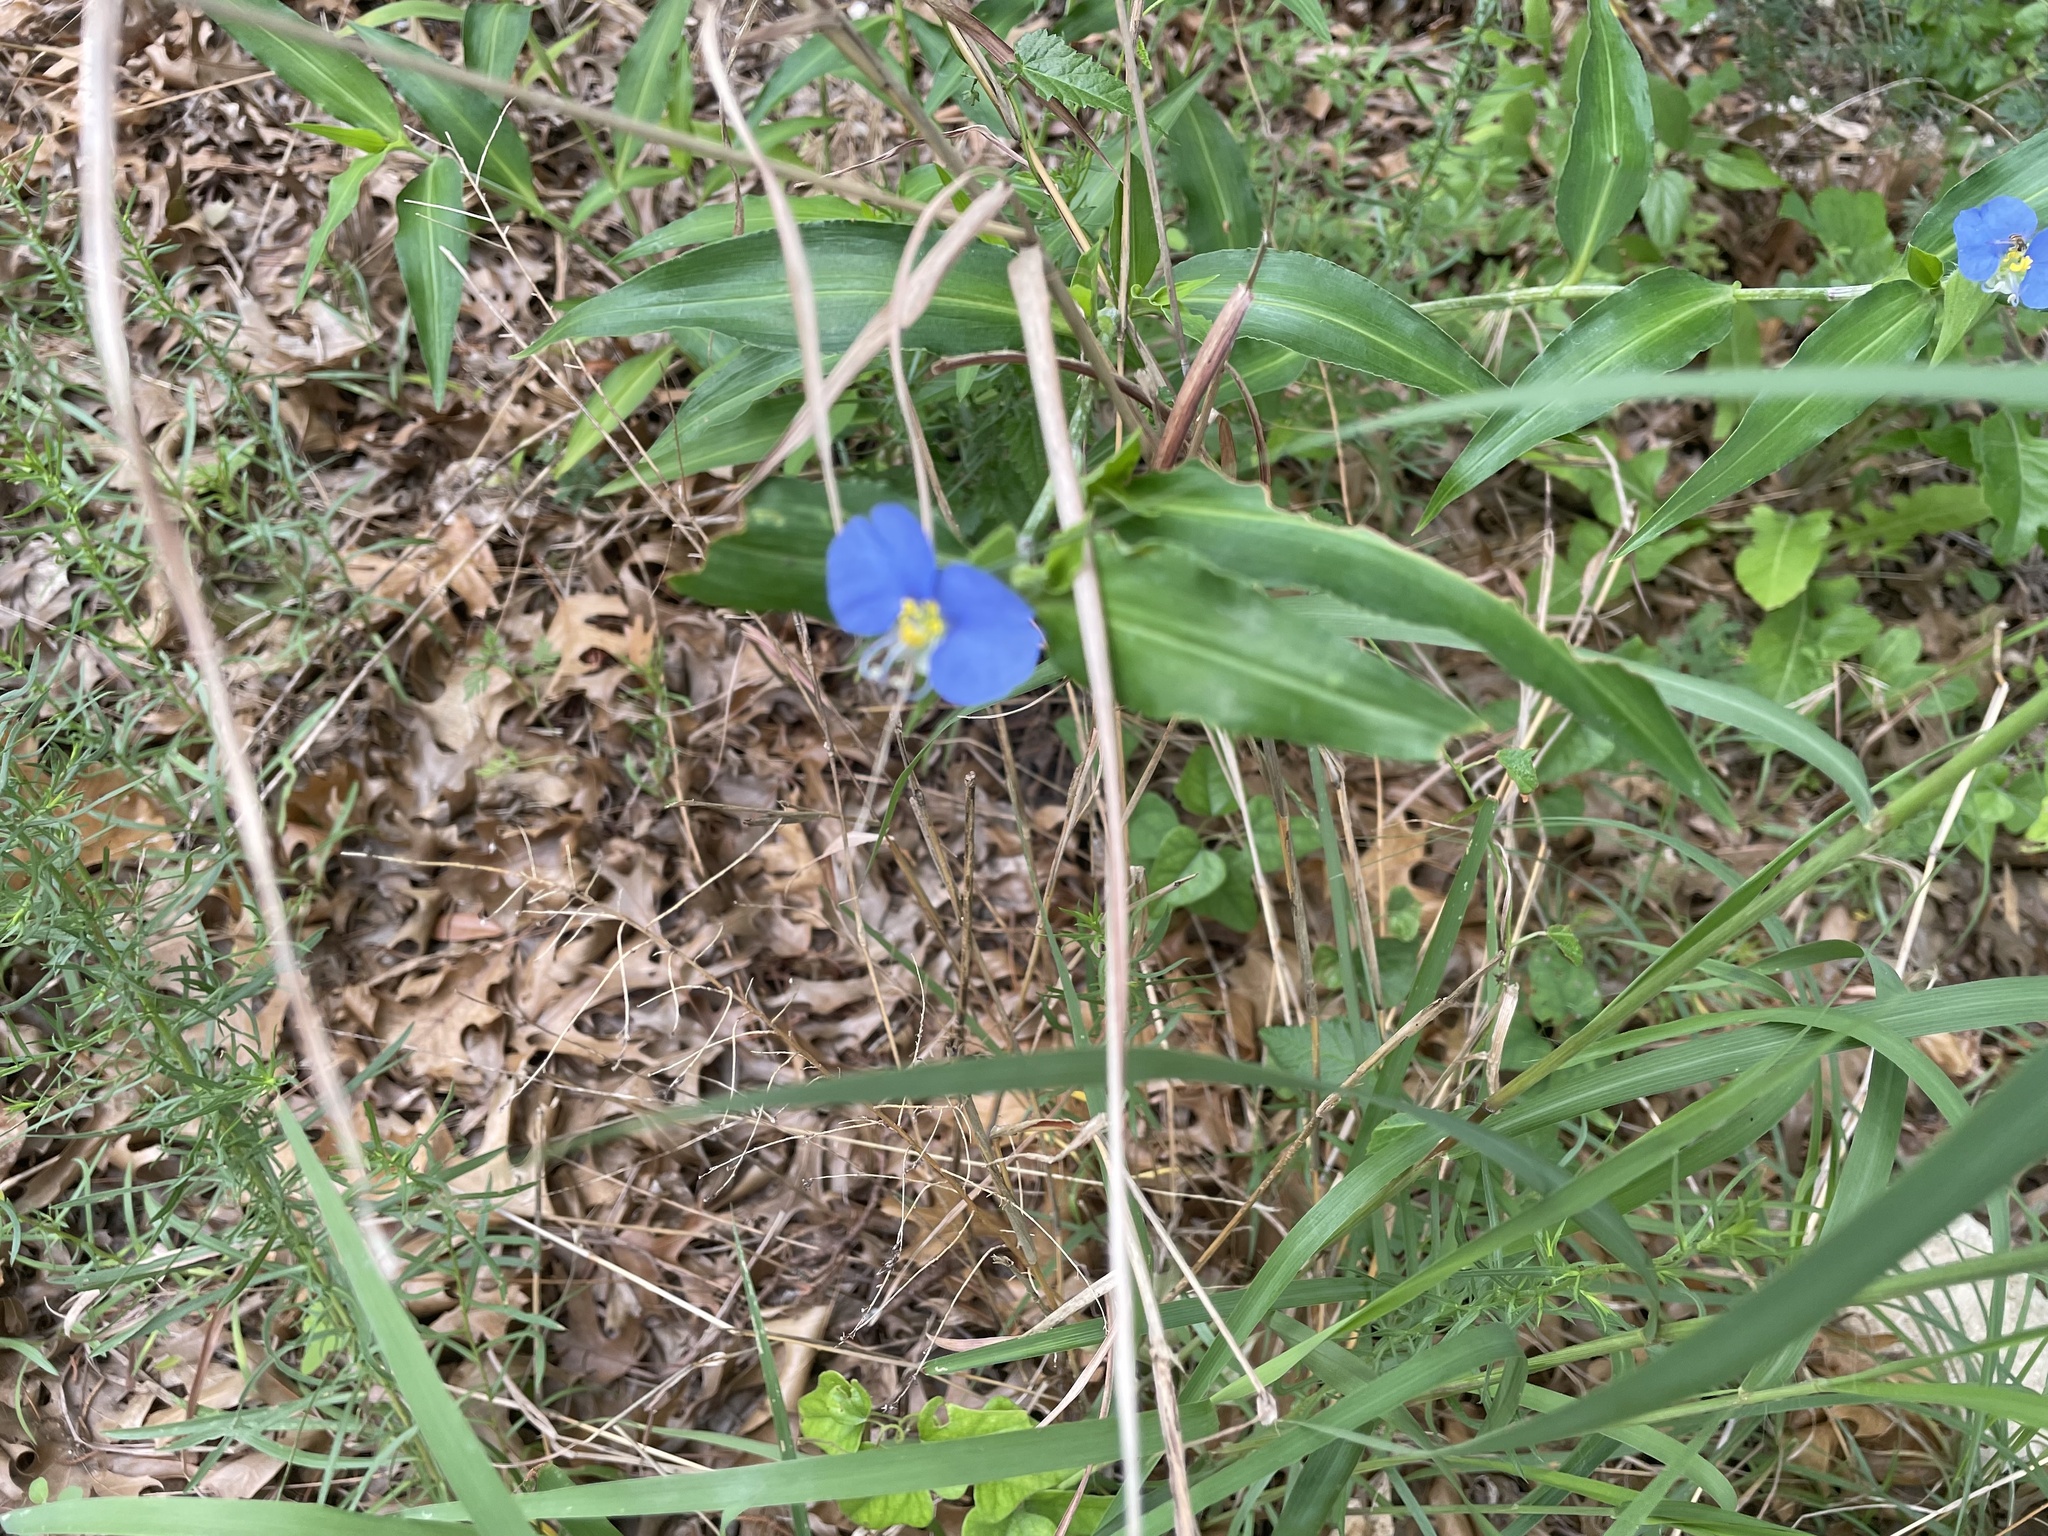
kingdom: Plantae
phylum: Tracheophyta
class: Liliopsida
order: Commelinales
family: Commelinaceae
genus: Commelina
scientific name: Commelina erecta
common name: Blousel blommetjie
